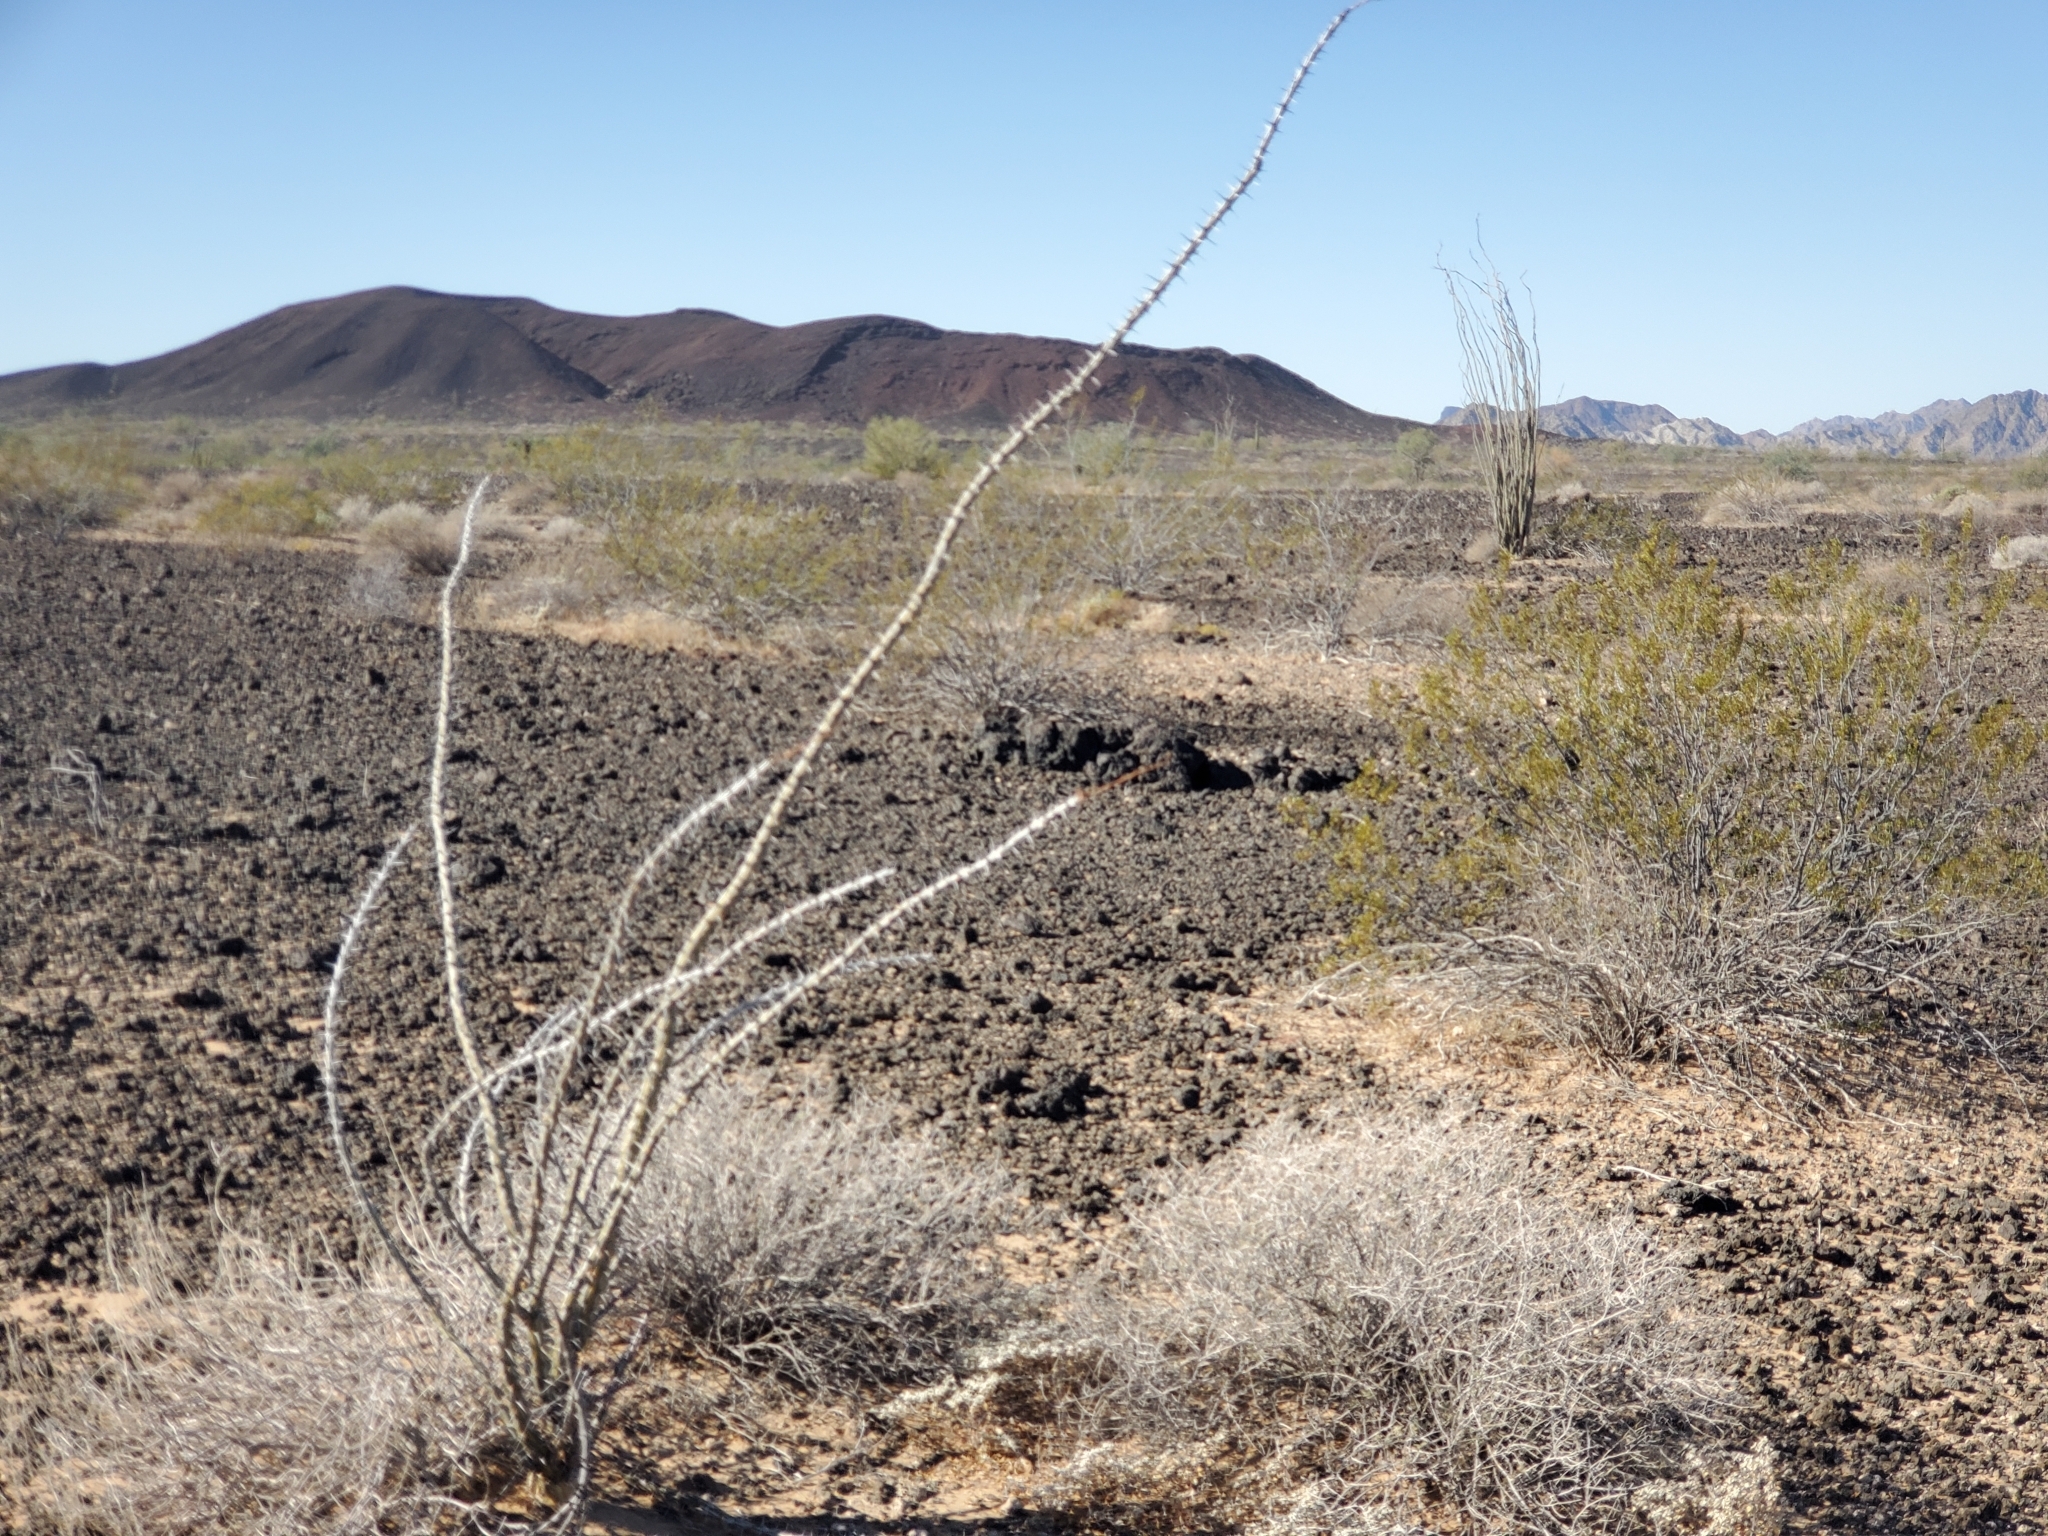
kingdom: Plantae
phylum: Tracheophyta
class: Magnoliopsida
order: Ericales
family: Fouquieriaceae
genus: Fouquieria
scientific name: Fouquieria splendens
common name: Vine-cactus
